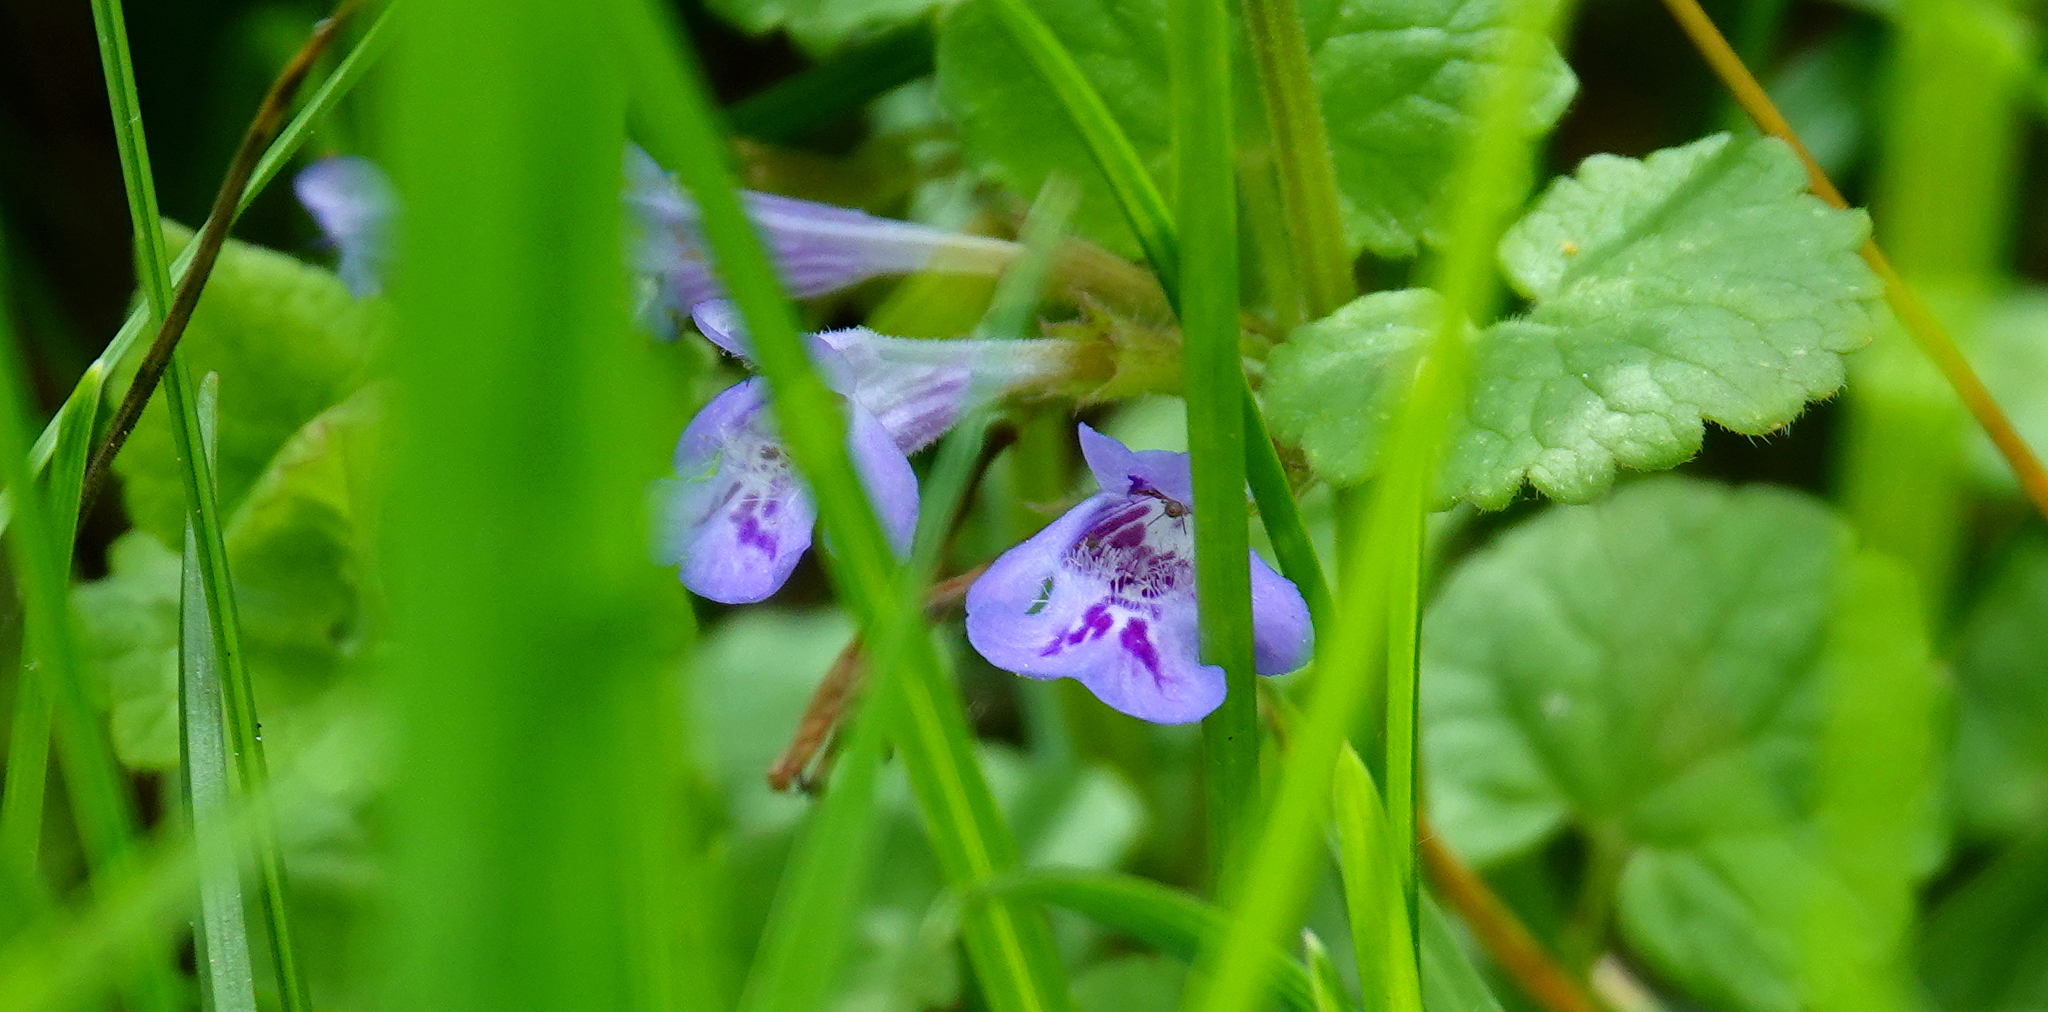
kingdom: Plantae
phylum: Tracheophyta
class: Magnoliopsida
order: Lamiales
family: Lamiaceae
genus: Glechoma
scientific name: Glechoma hederacea
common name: Ground ivy
